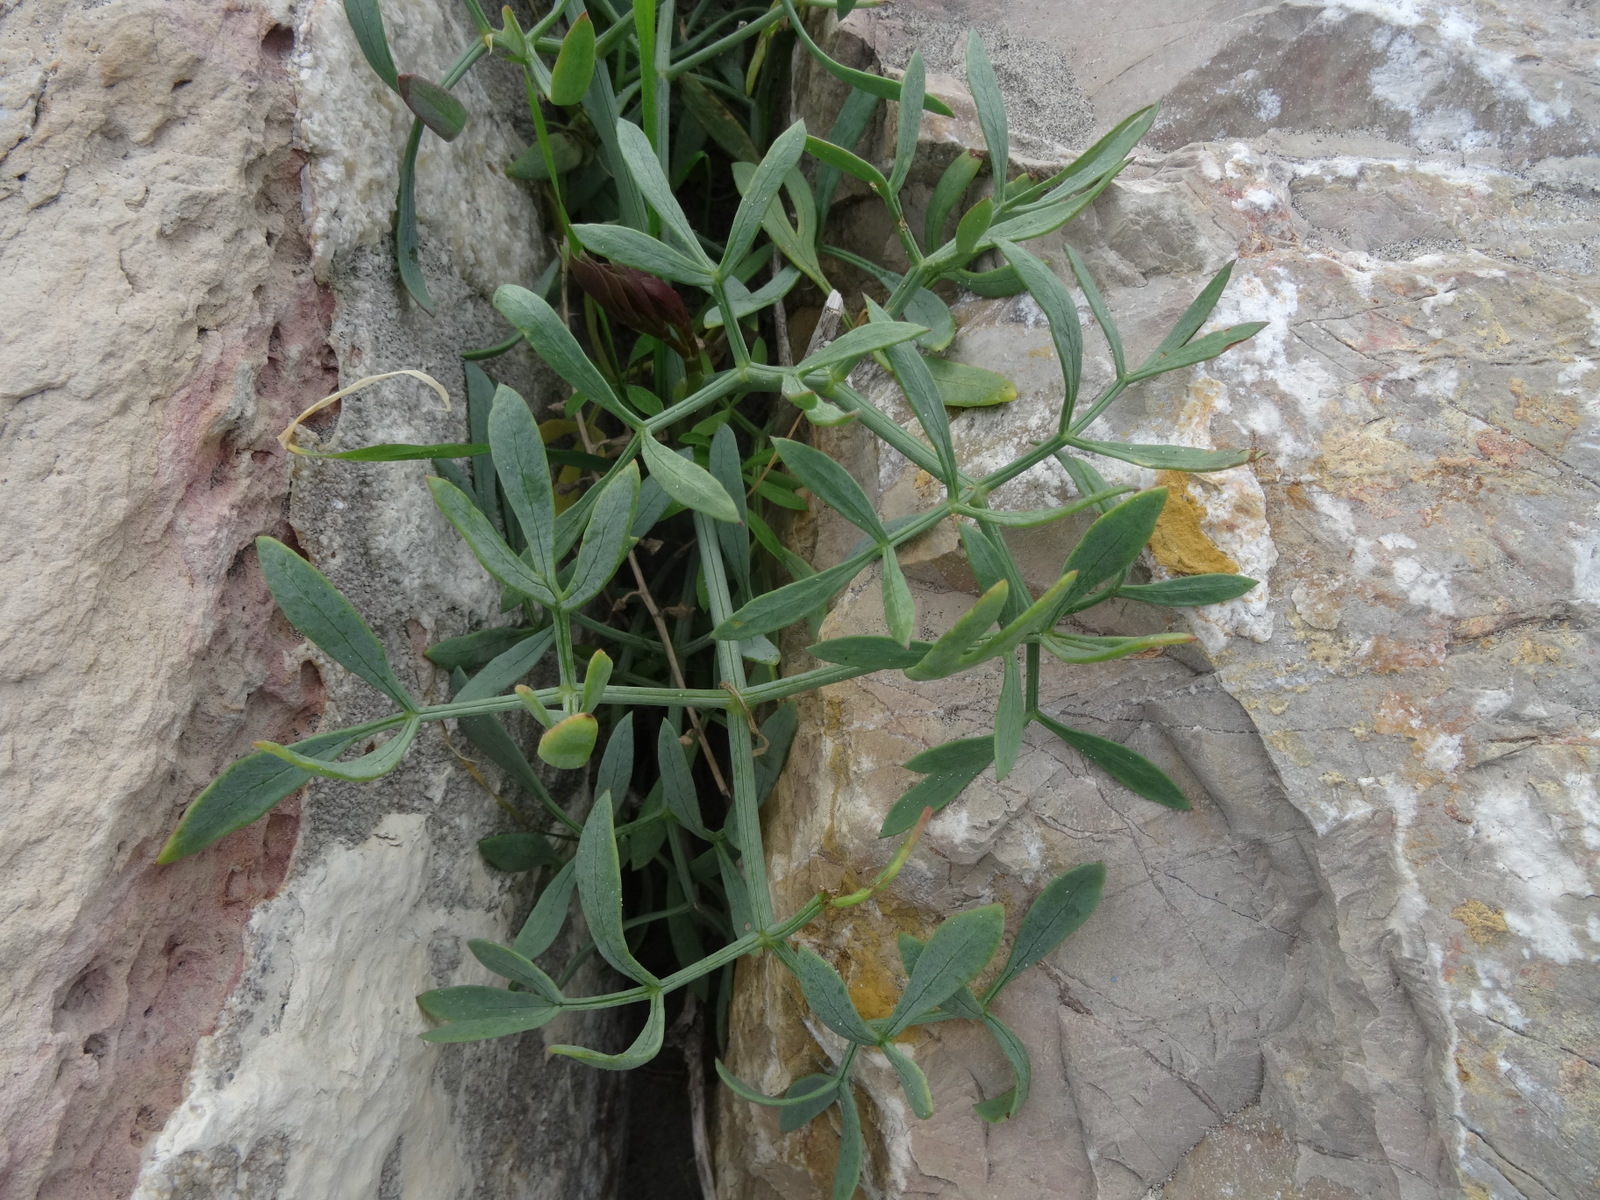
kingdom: Plantae
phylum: Tracheophyta
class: Magnoliopsida
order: Apiales
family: Apiaceae
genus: Crithmum
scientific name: Crithmum maritimum
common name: Rock samphire
